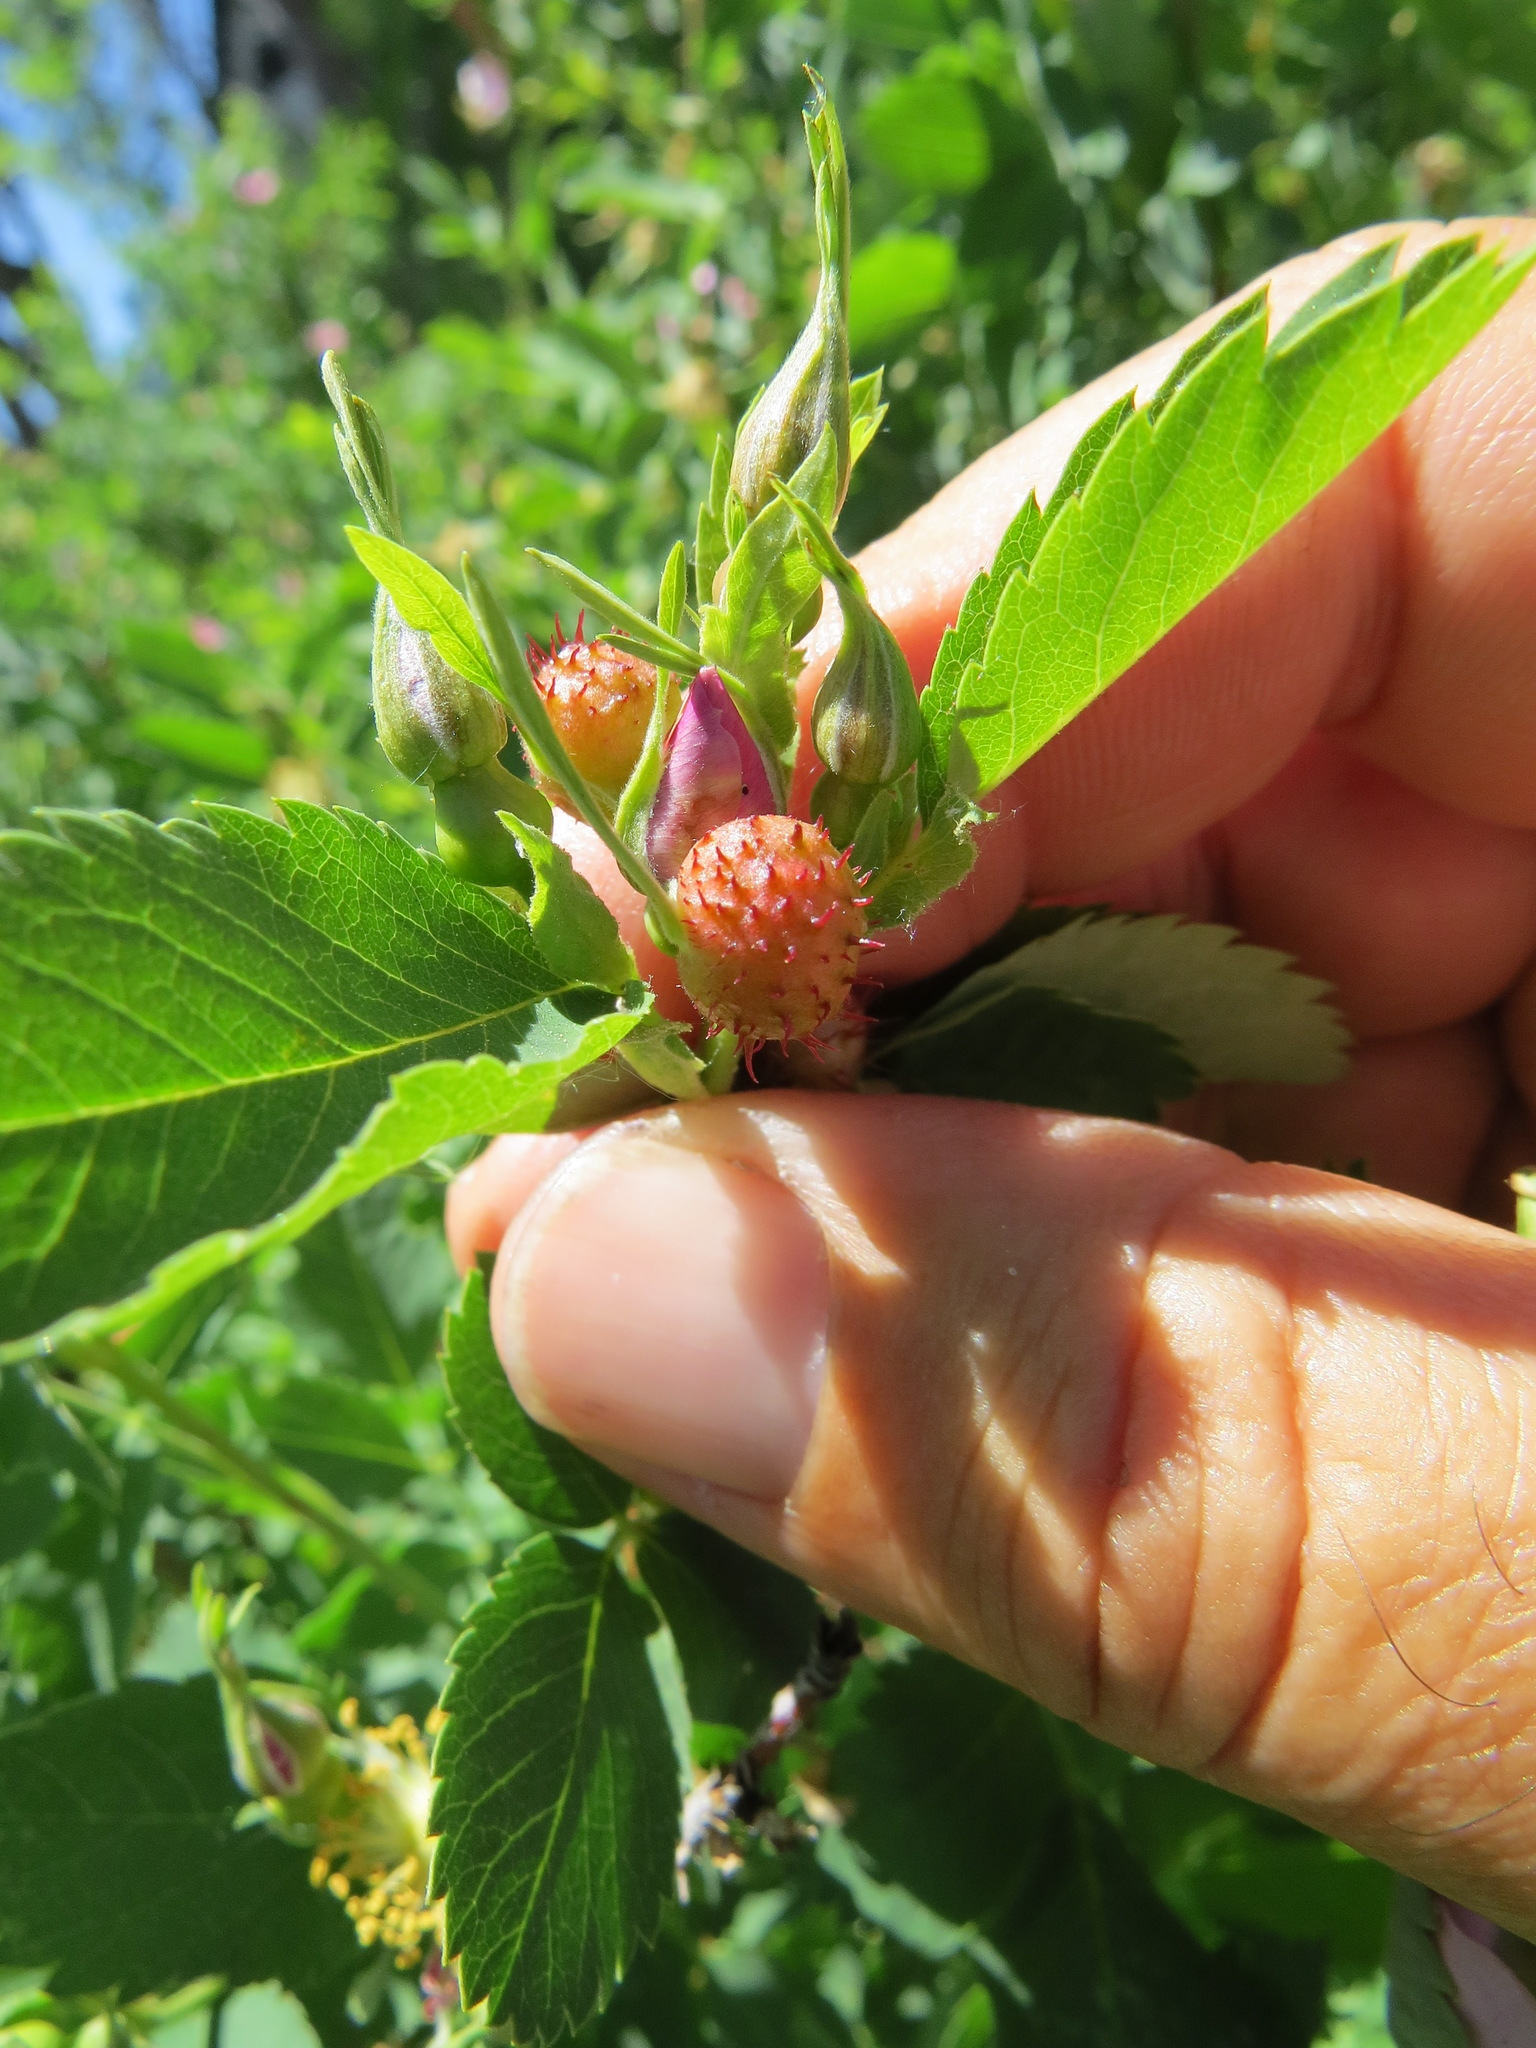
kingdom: Animalia
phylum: Arthropoda
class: Insecta
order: Hymenoptera
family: Cynipidae
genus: Diplolepis
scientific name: Diplolepis polita
